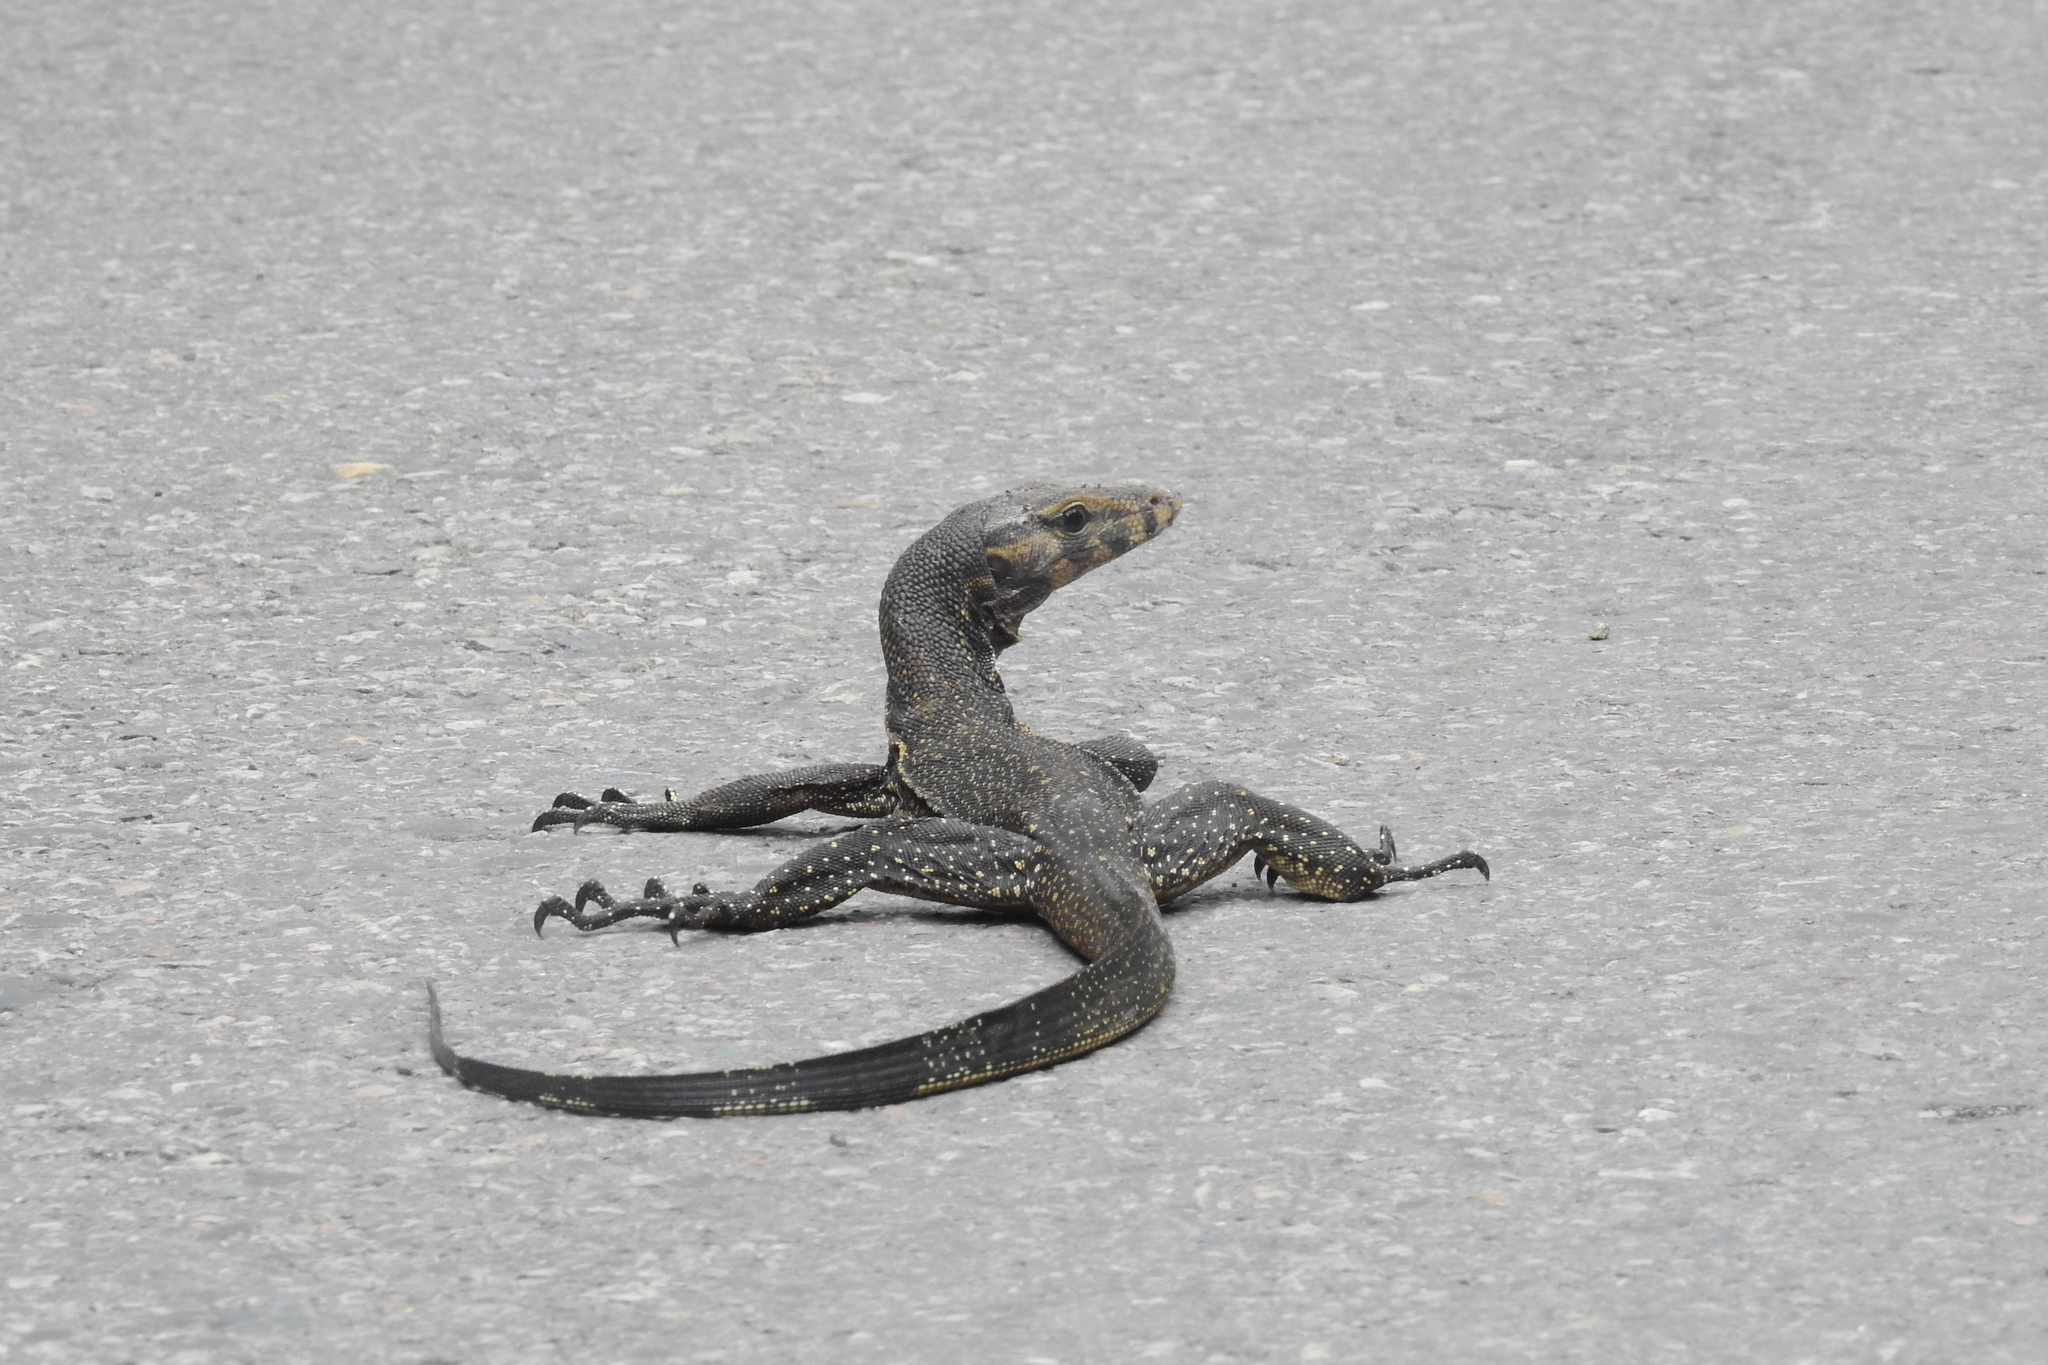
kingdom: Animalia
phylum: Chordata
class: Squamata
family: Varanidae
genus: Varanus
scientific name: Varanus togianus
